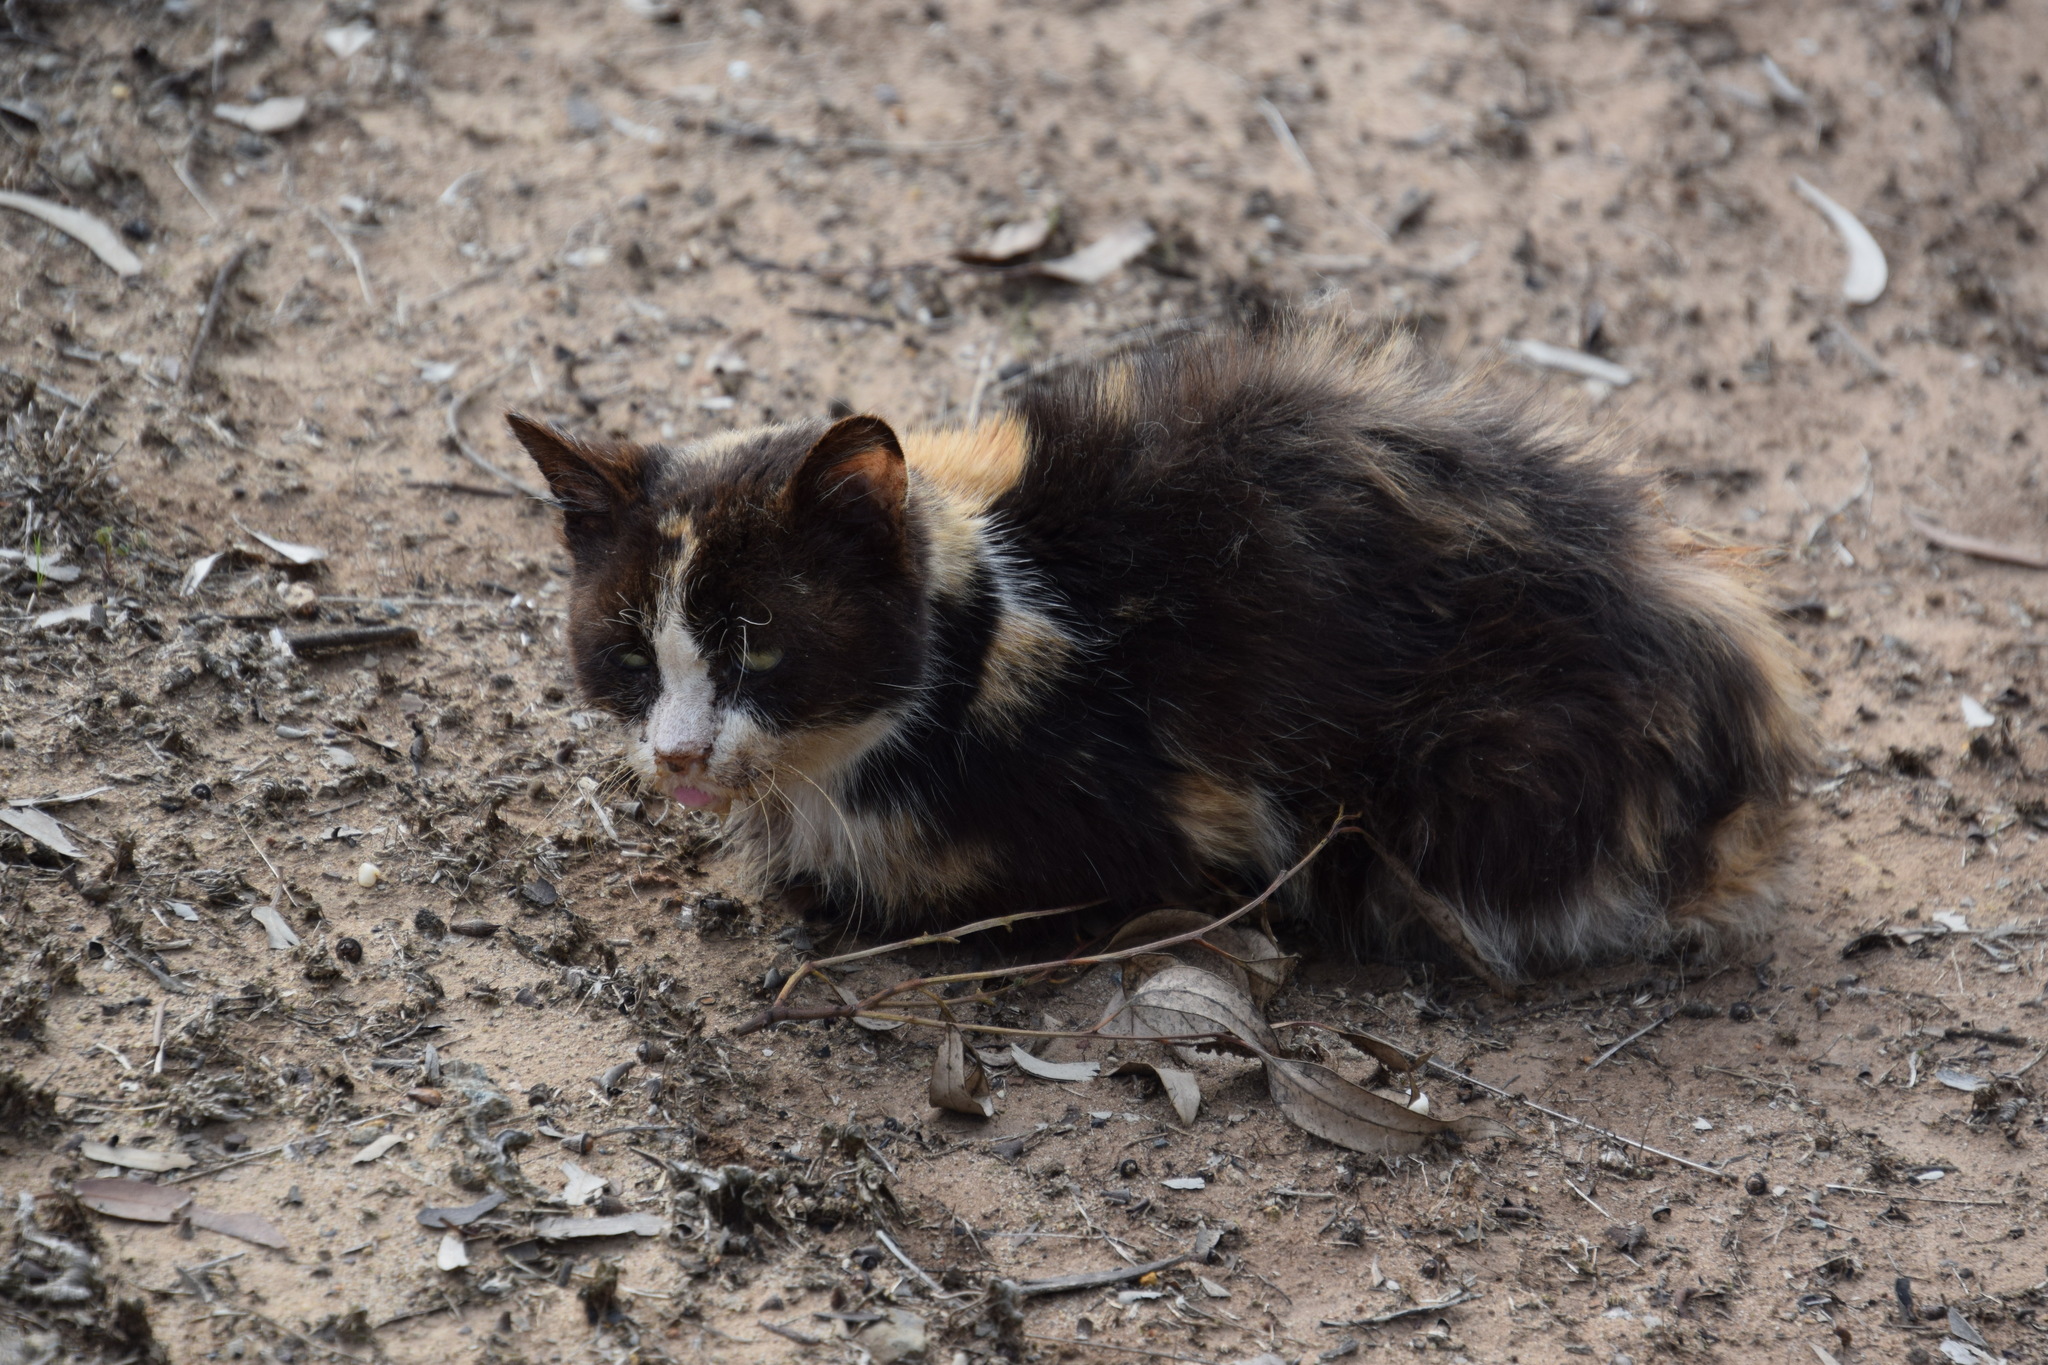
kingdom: Animalia
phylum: Chordata
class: Mammalia
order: Carnivora
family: Felidae
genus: Felis
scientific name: Felis catus
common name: Domestic cat
